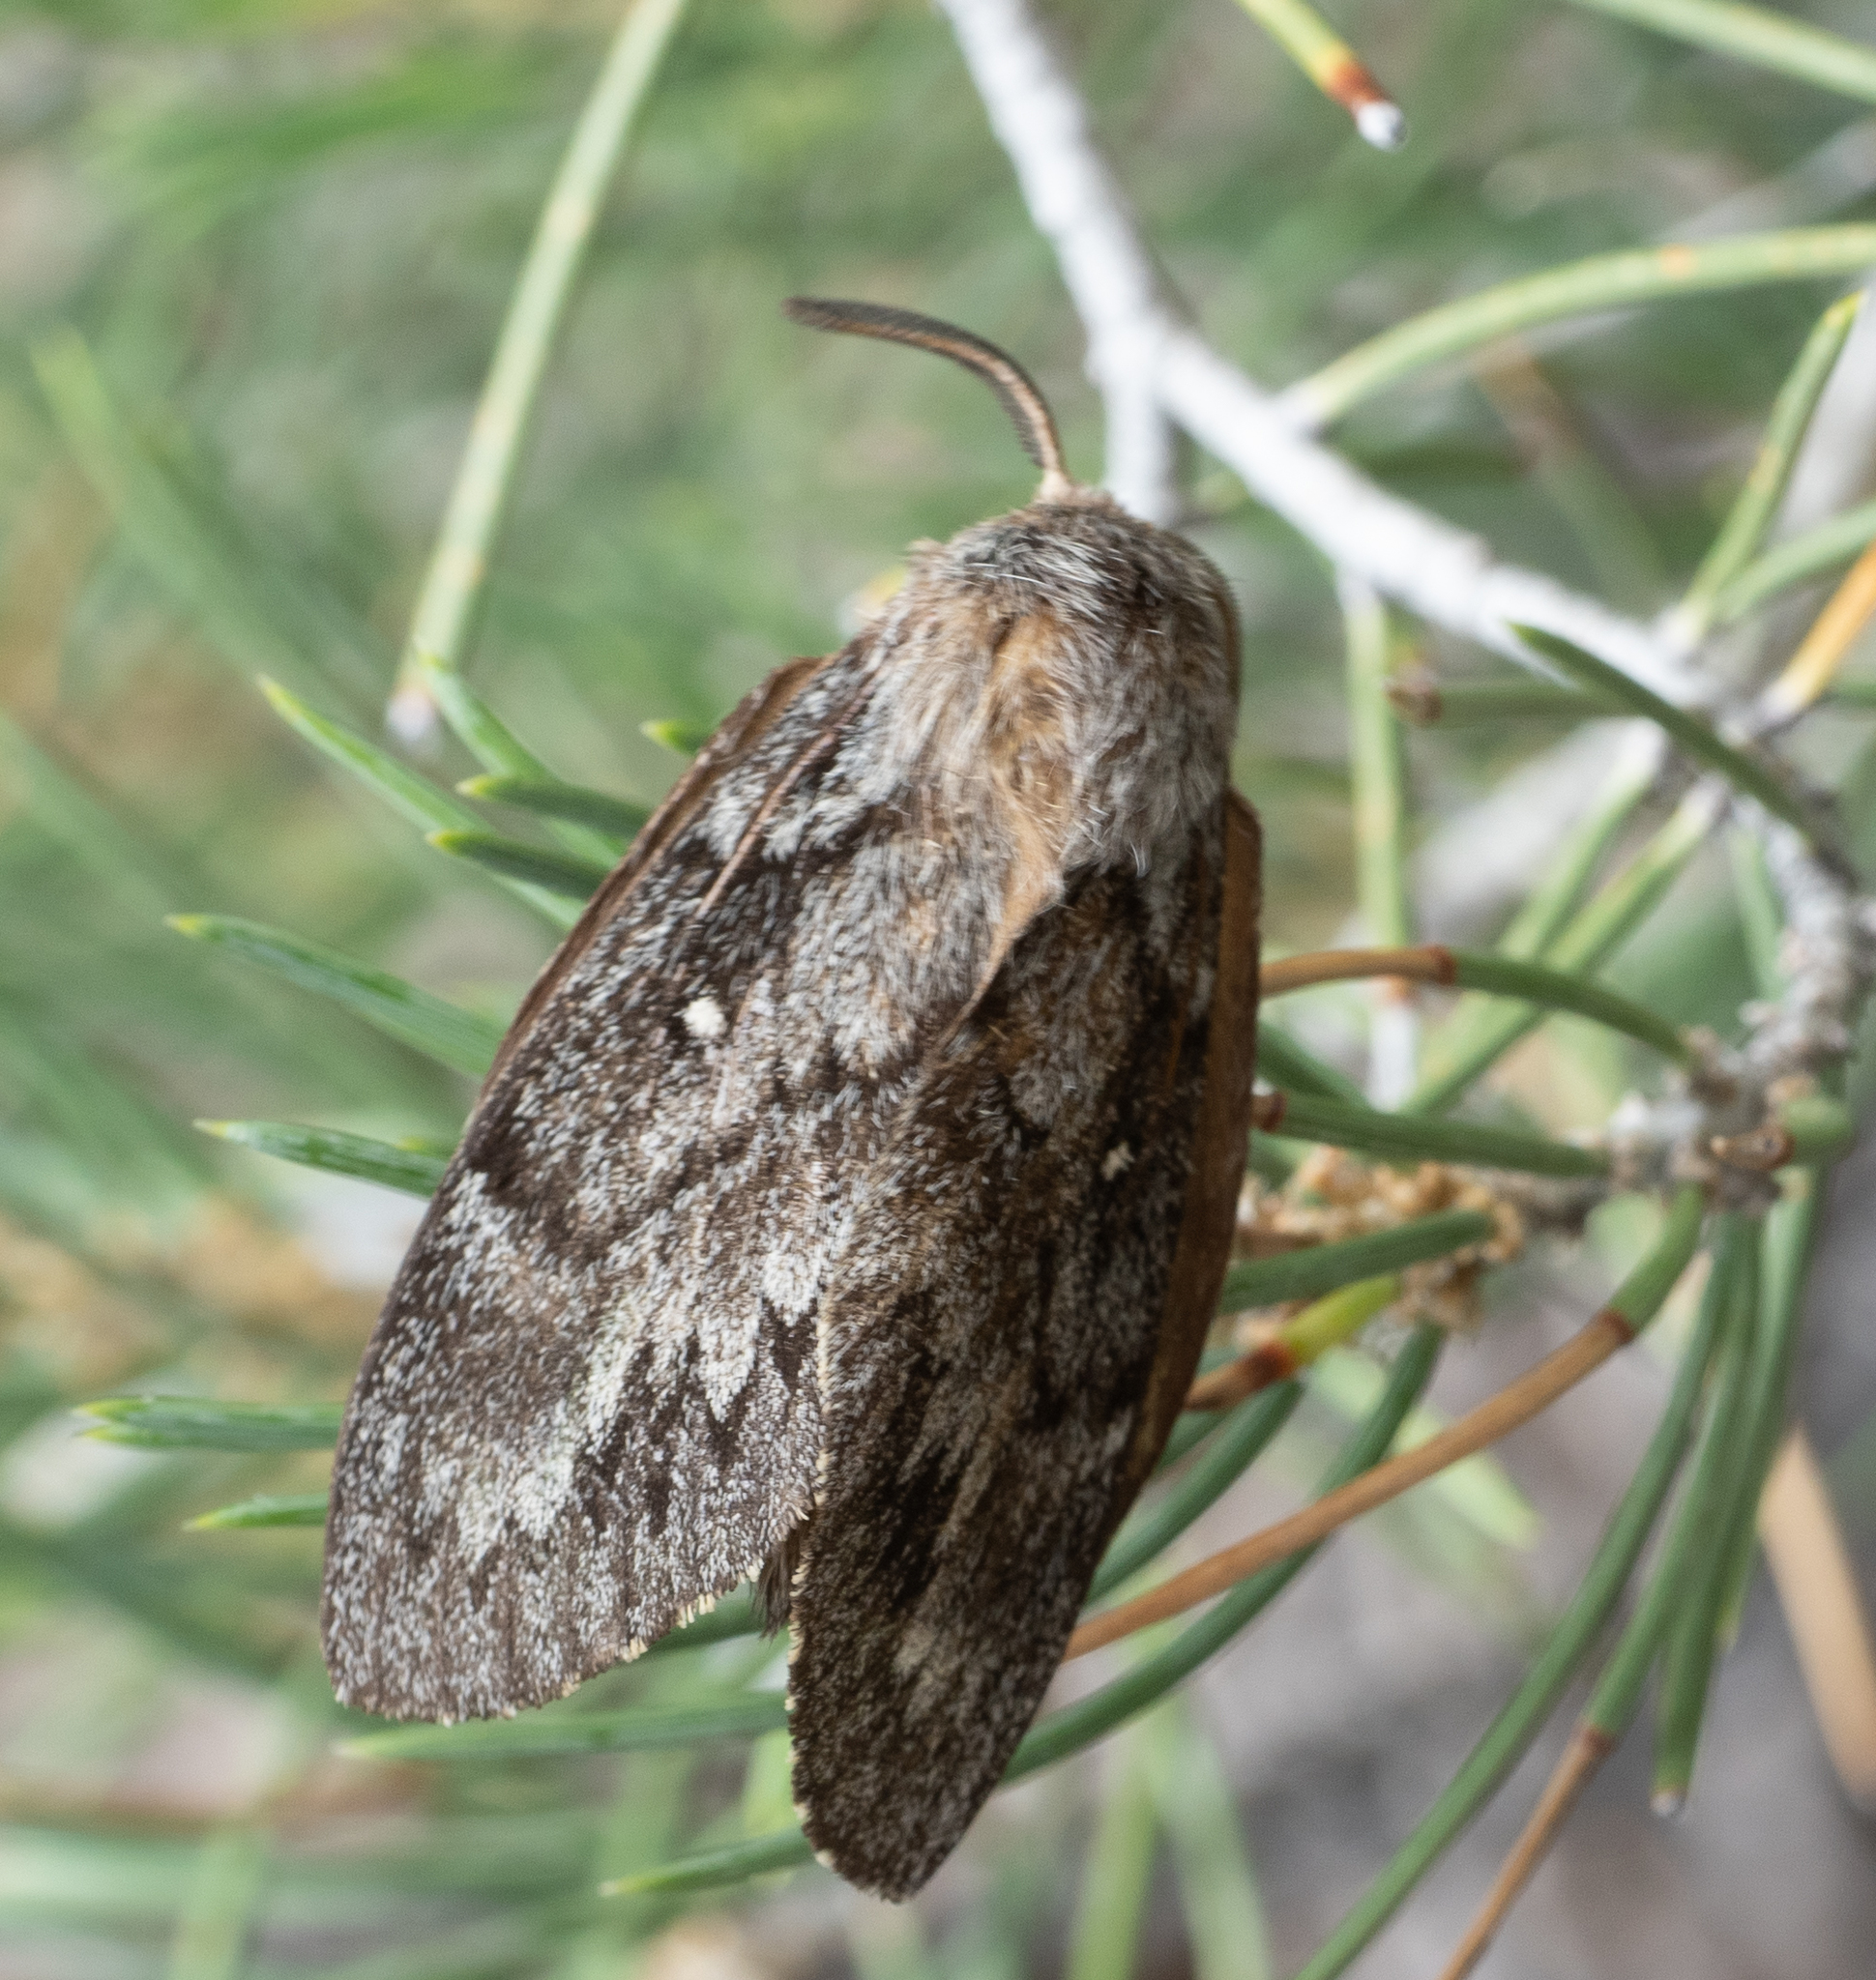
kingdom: Animalia
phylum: Arthropoda
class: Insecta
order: Lepidoptera
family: Lasiocampidae
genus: Gloveria
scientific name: Gloveria arizonensis
